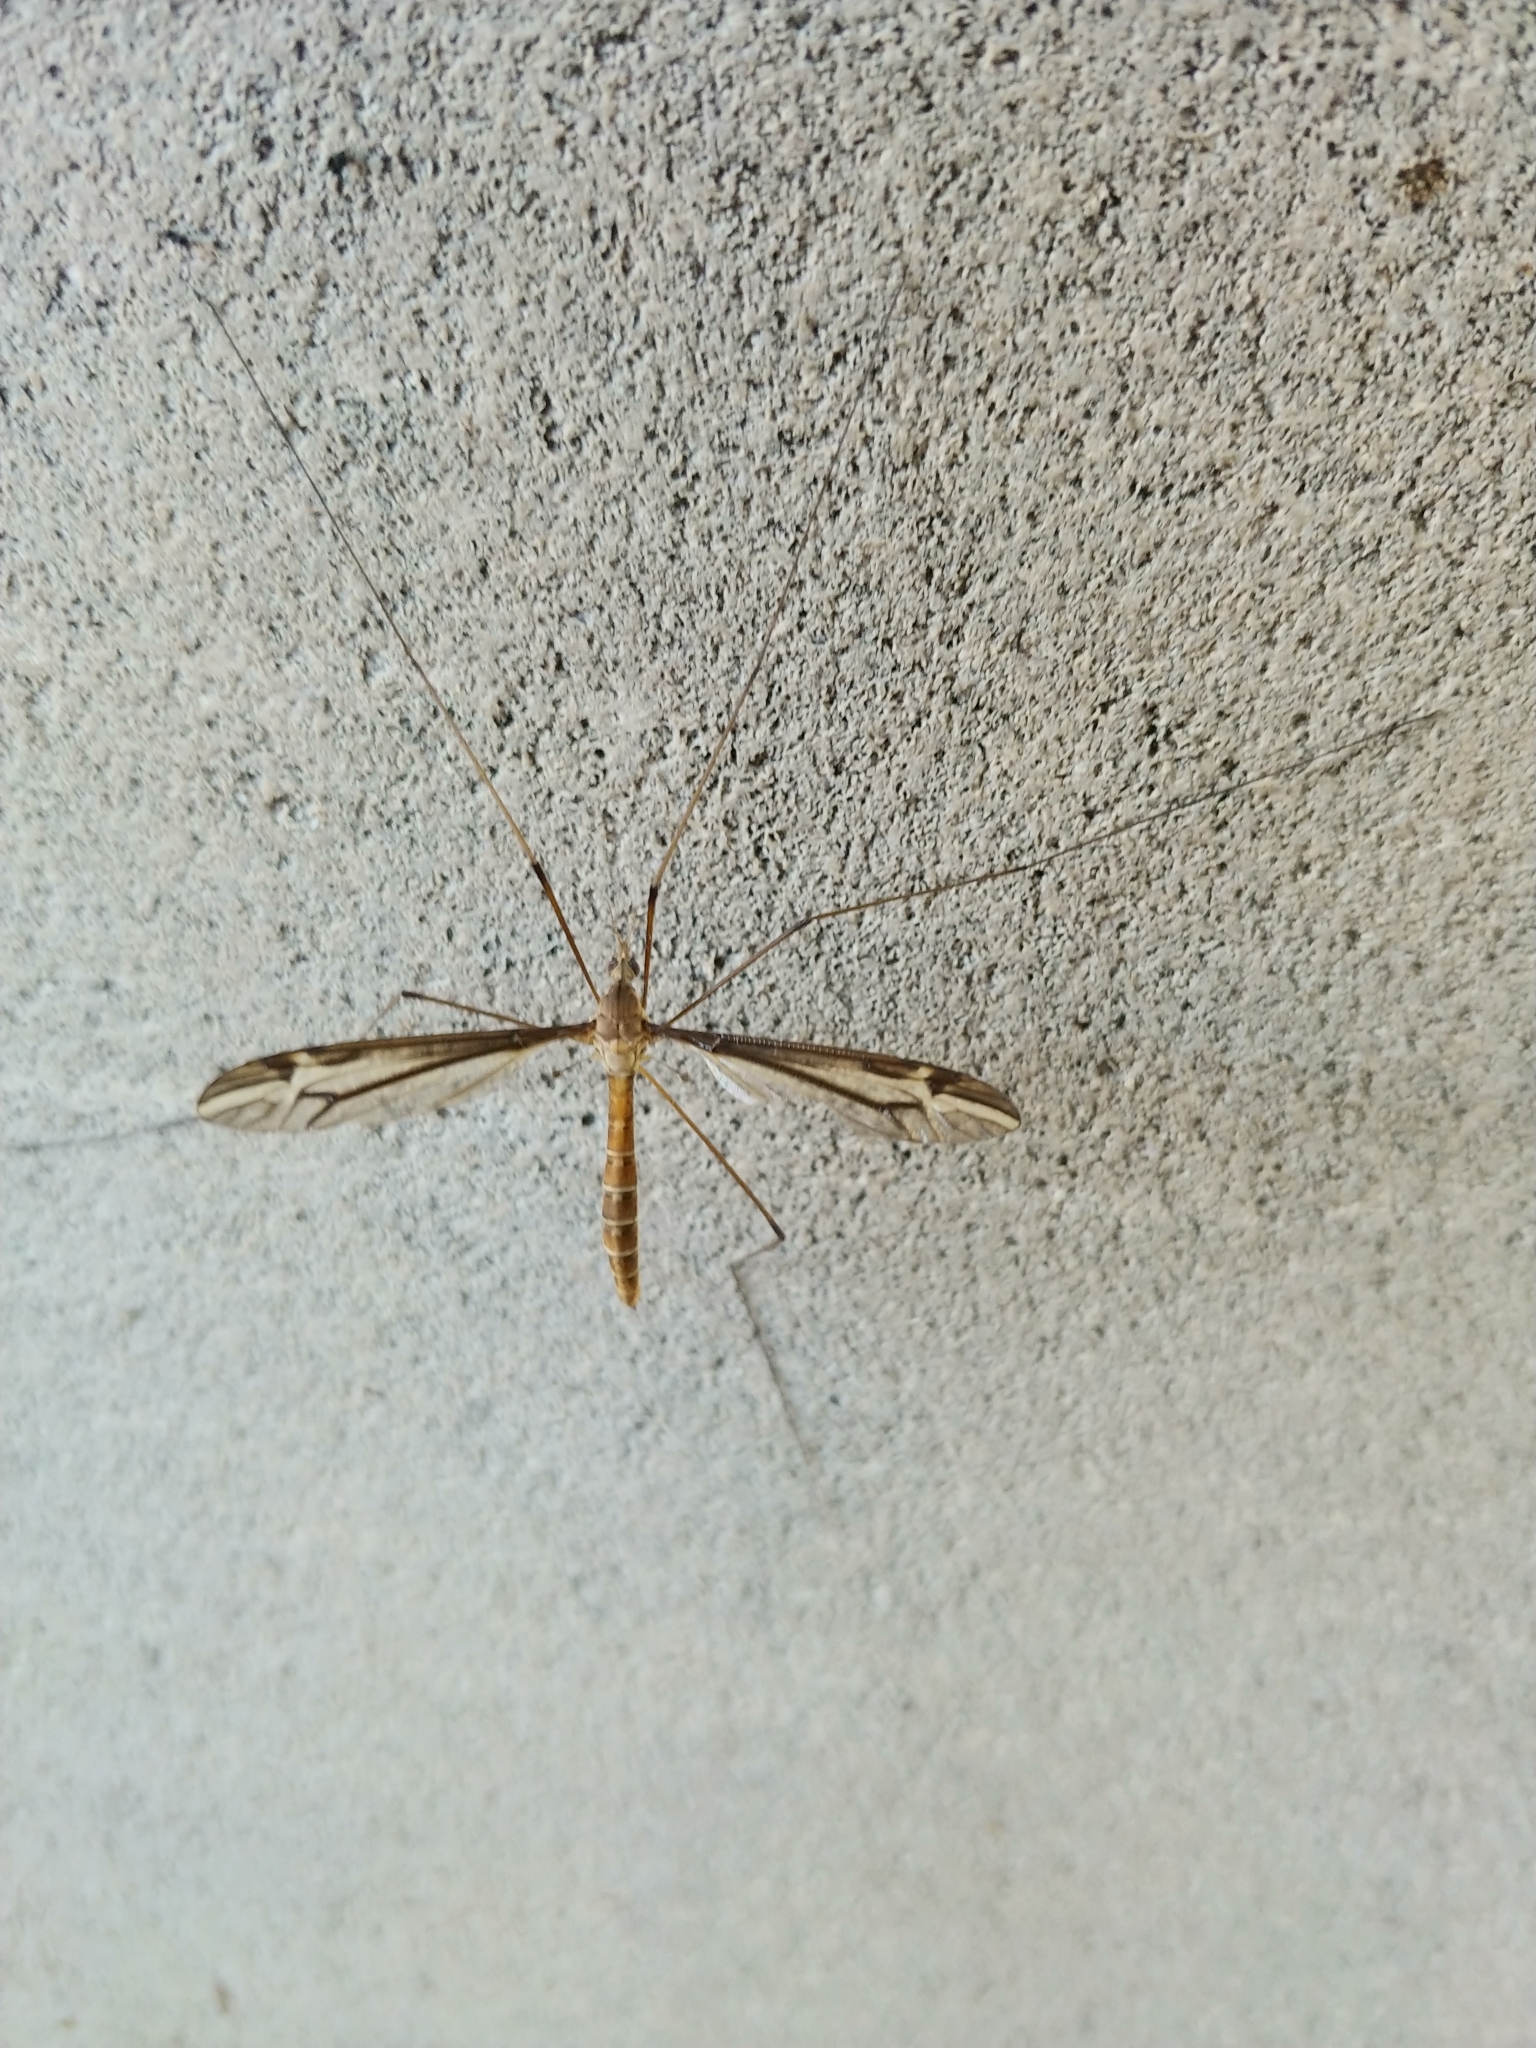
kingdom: Animalia
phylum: Arthropoda
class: Insecta
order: Diptera
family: Tipulidae
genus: Tipula
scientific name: Tipula furca
